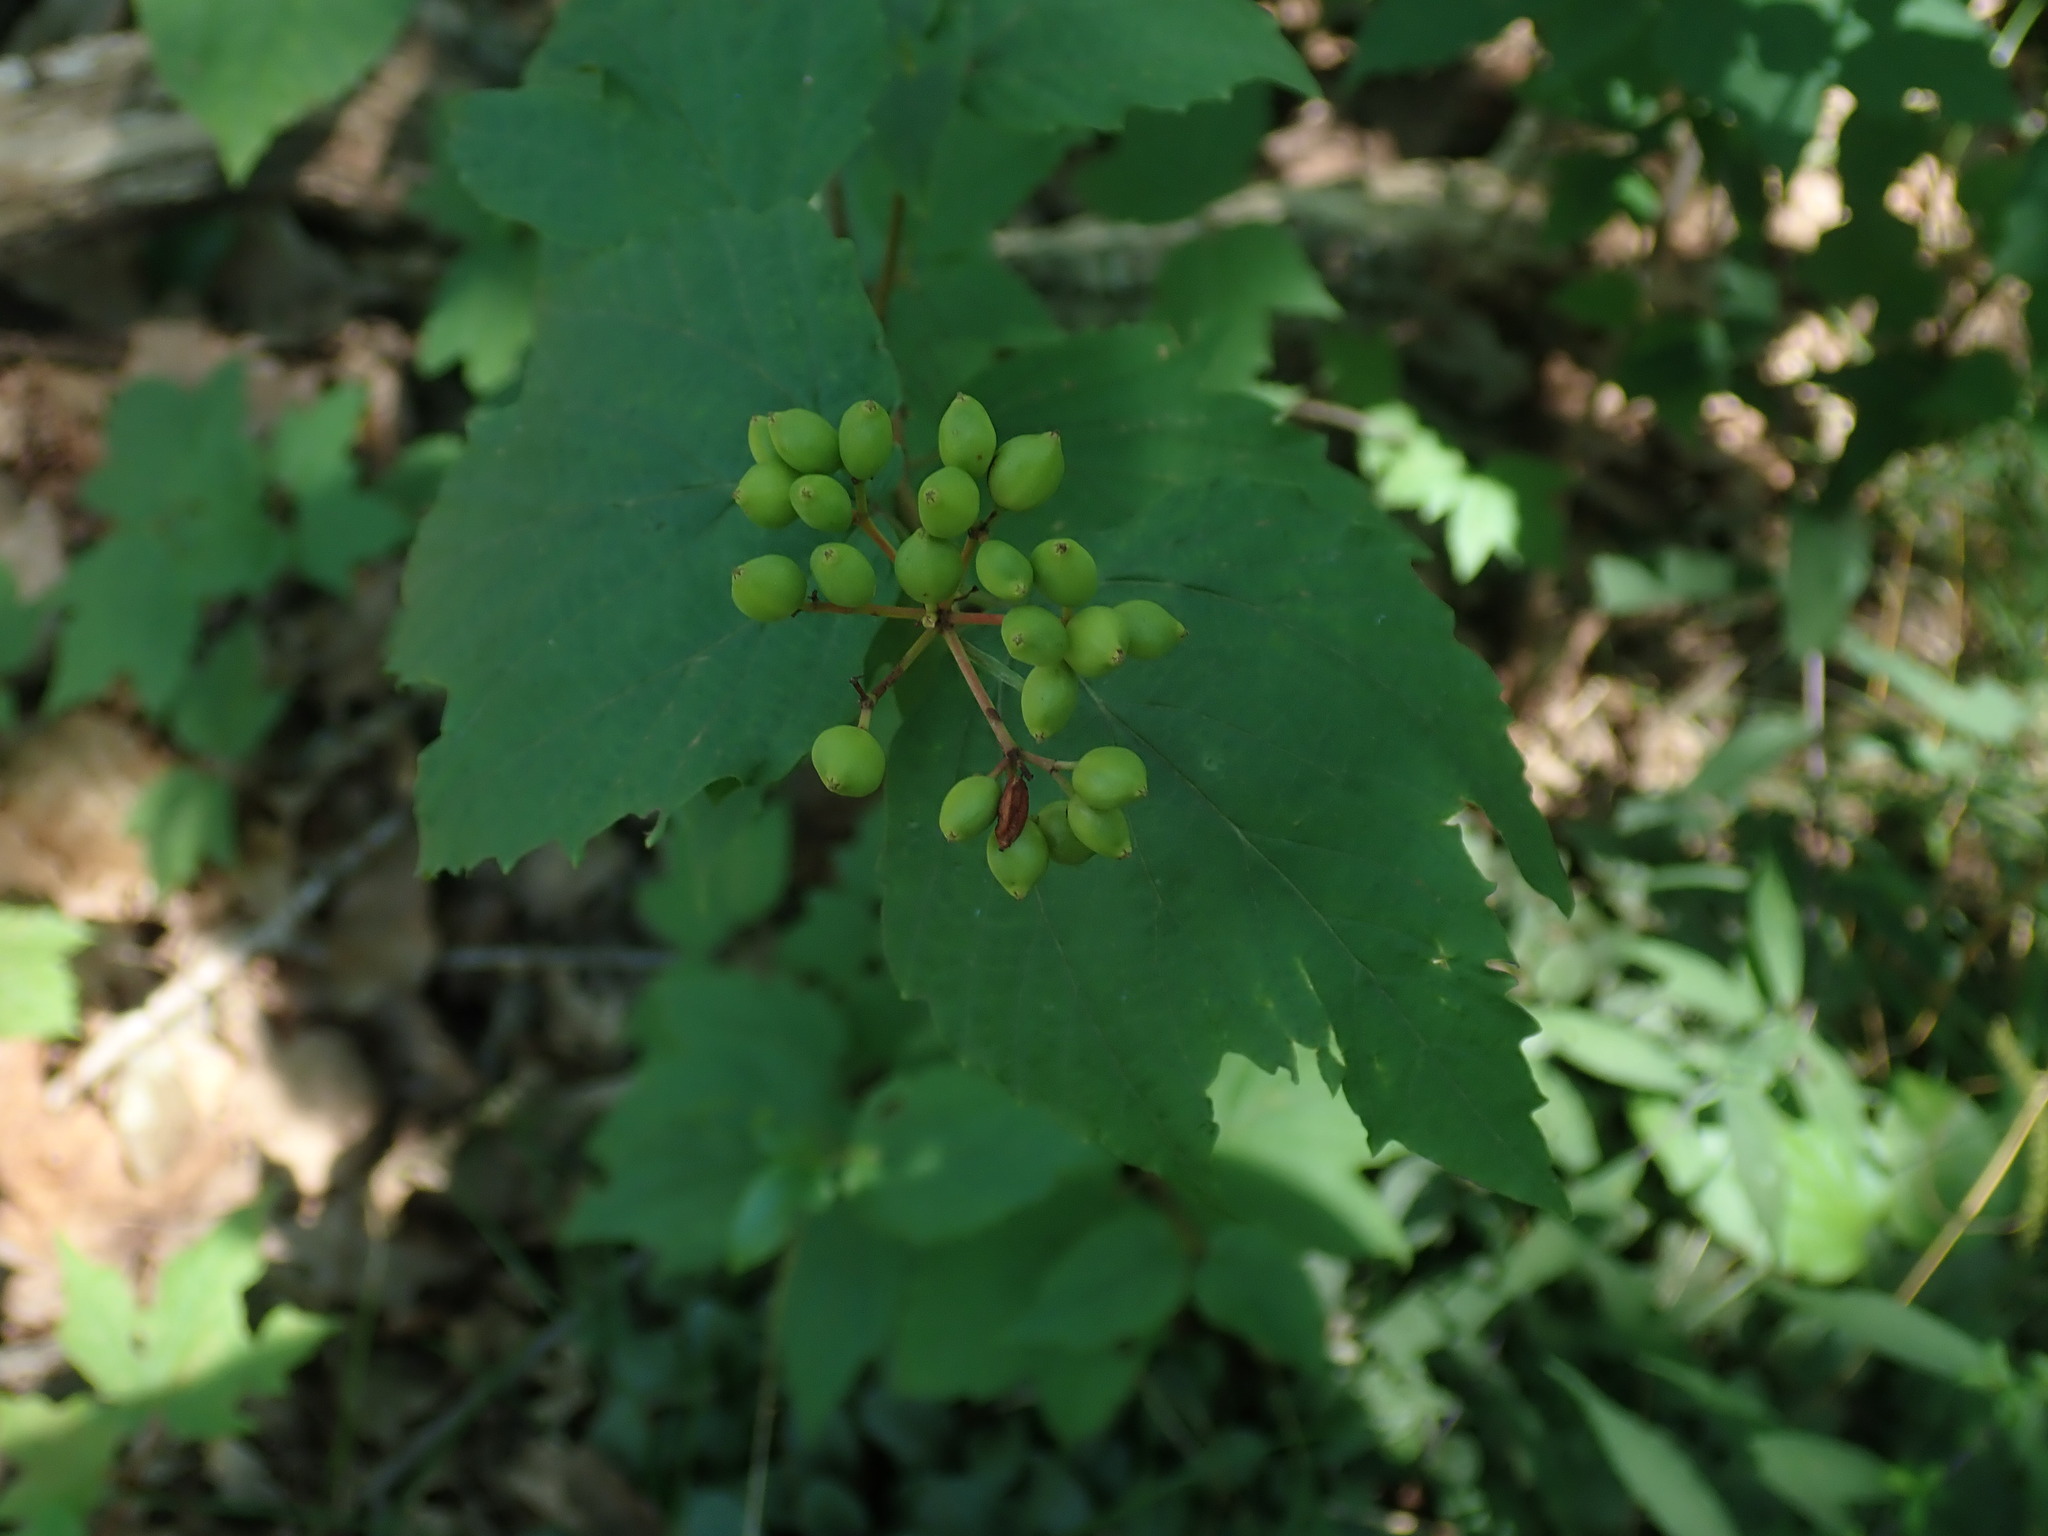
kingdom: Plantae
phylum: Tracheophyta
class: Magnoliopsida
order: Dipsacales
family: Viburnaceae
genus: Viburnum
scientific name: Viburnum acerifolium
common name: Dockmackie
